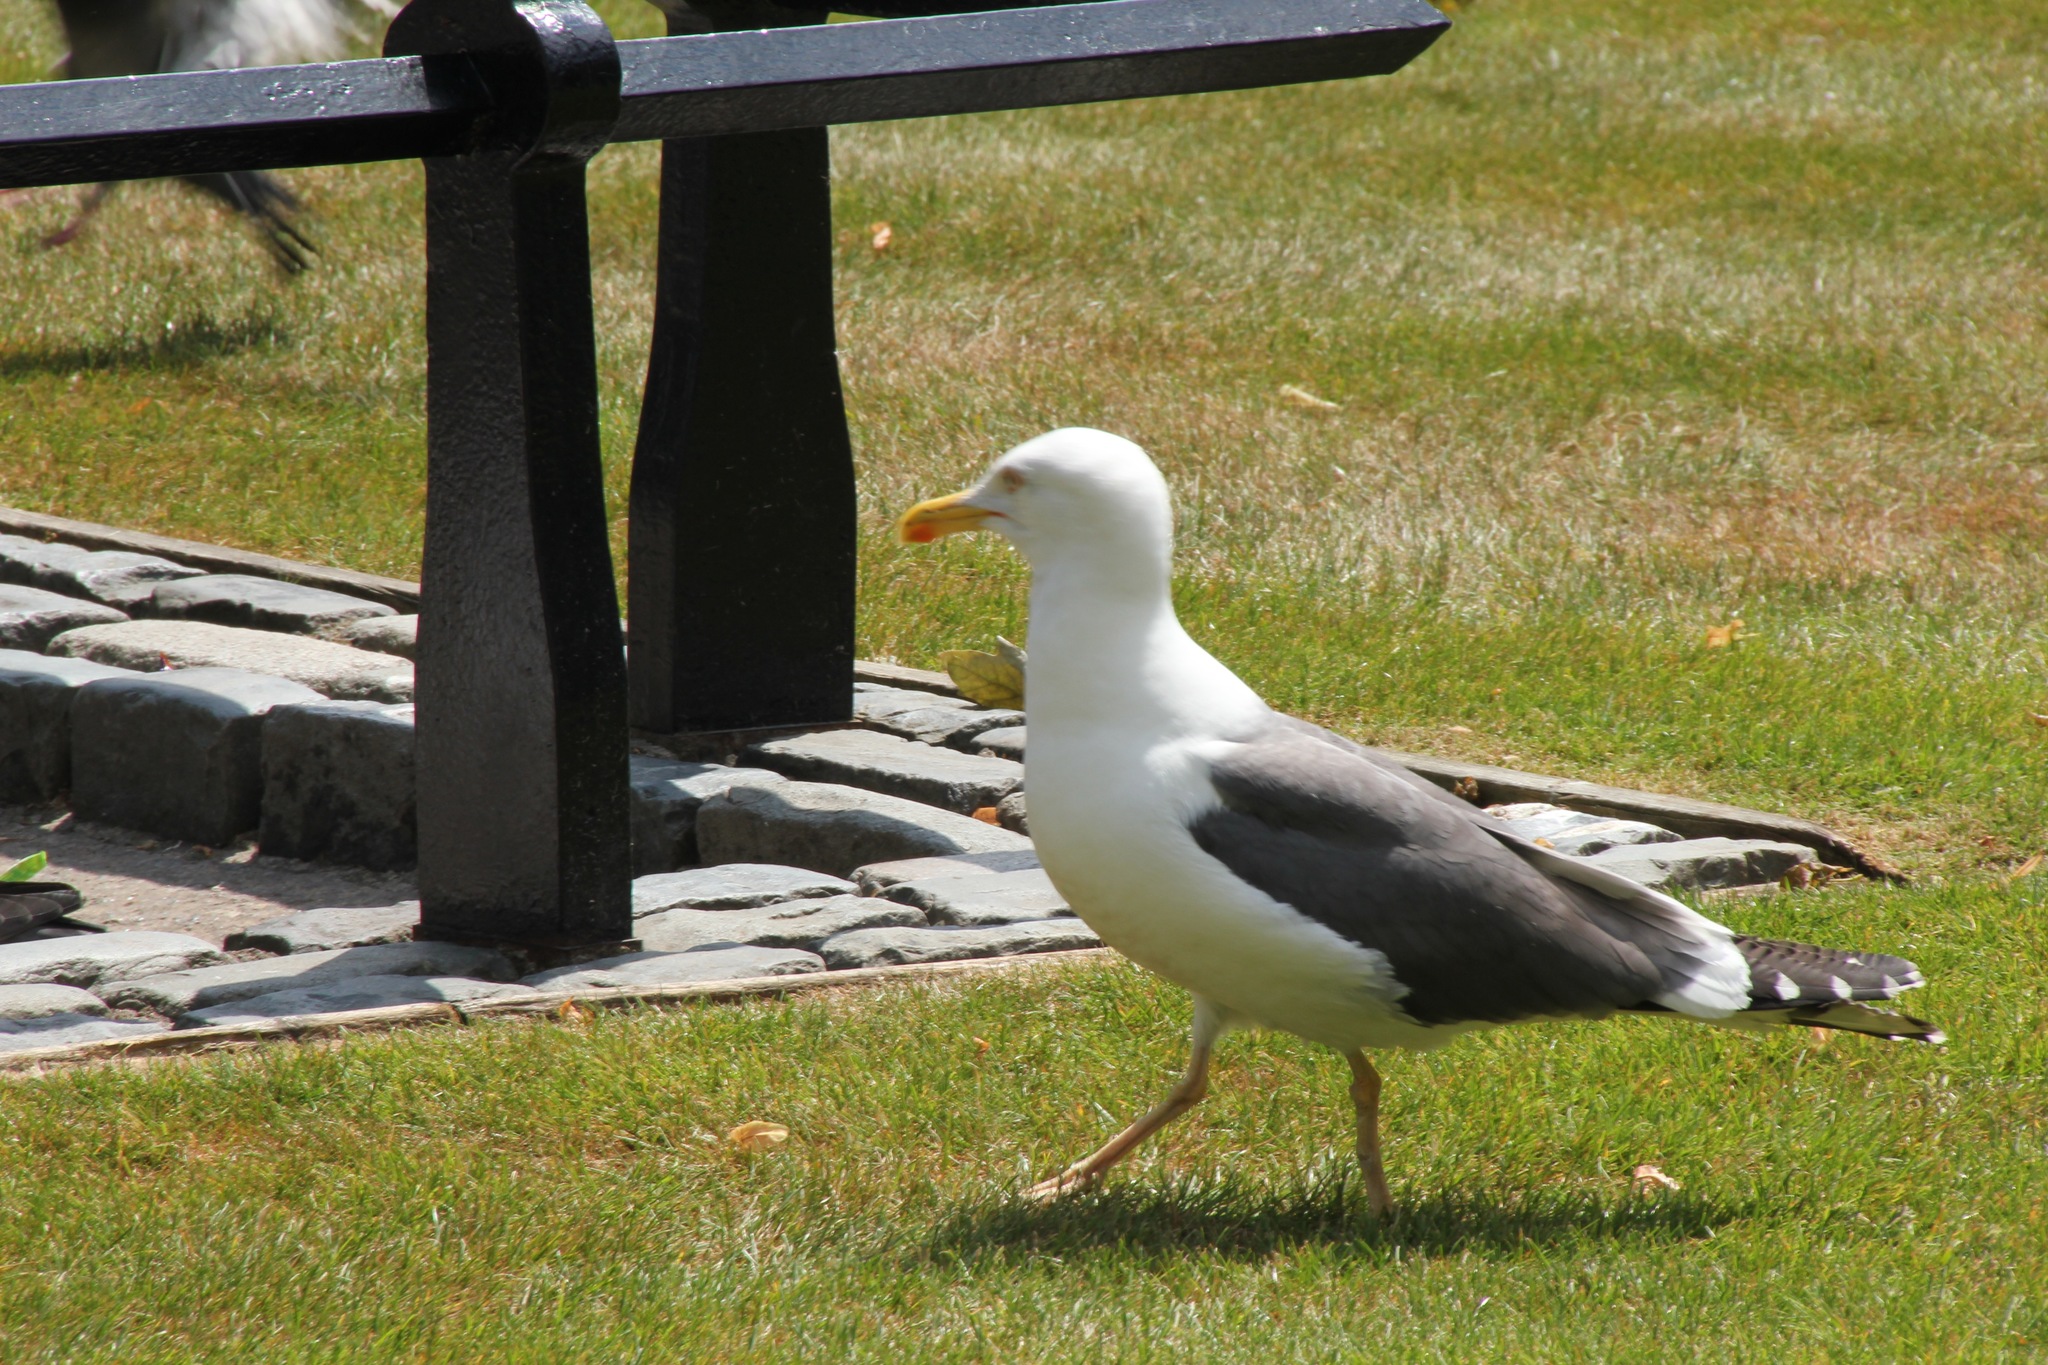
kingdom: Animalia
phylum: Chordata
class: Aves
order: Charadriiformes
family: Laridae
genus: Larus
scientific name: Larus fuscus
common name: Lesser black-backed gull
